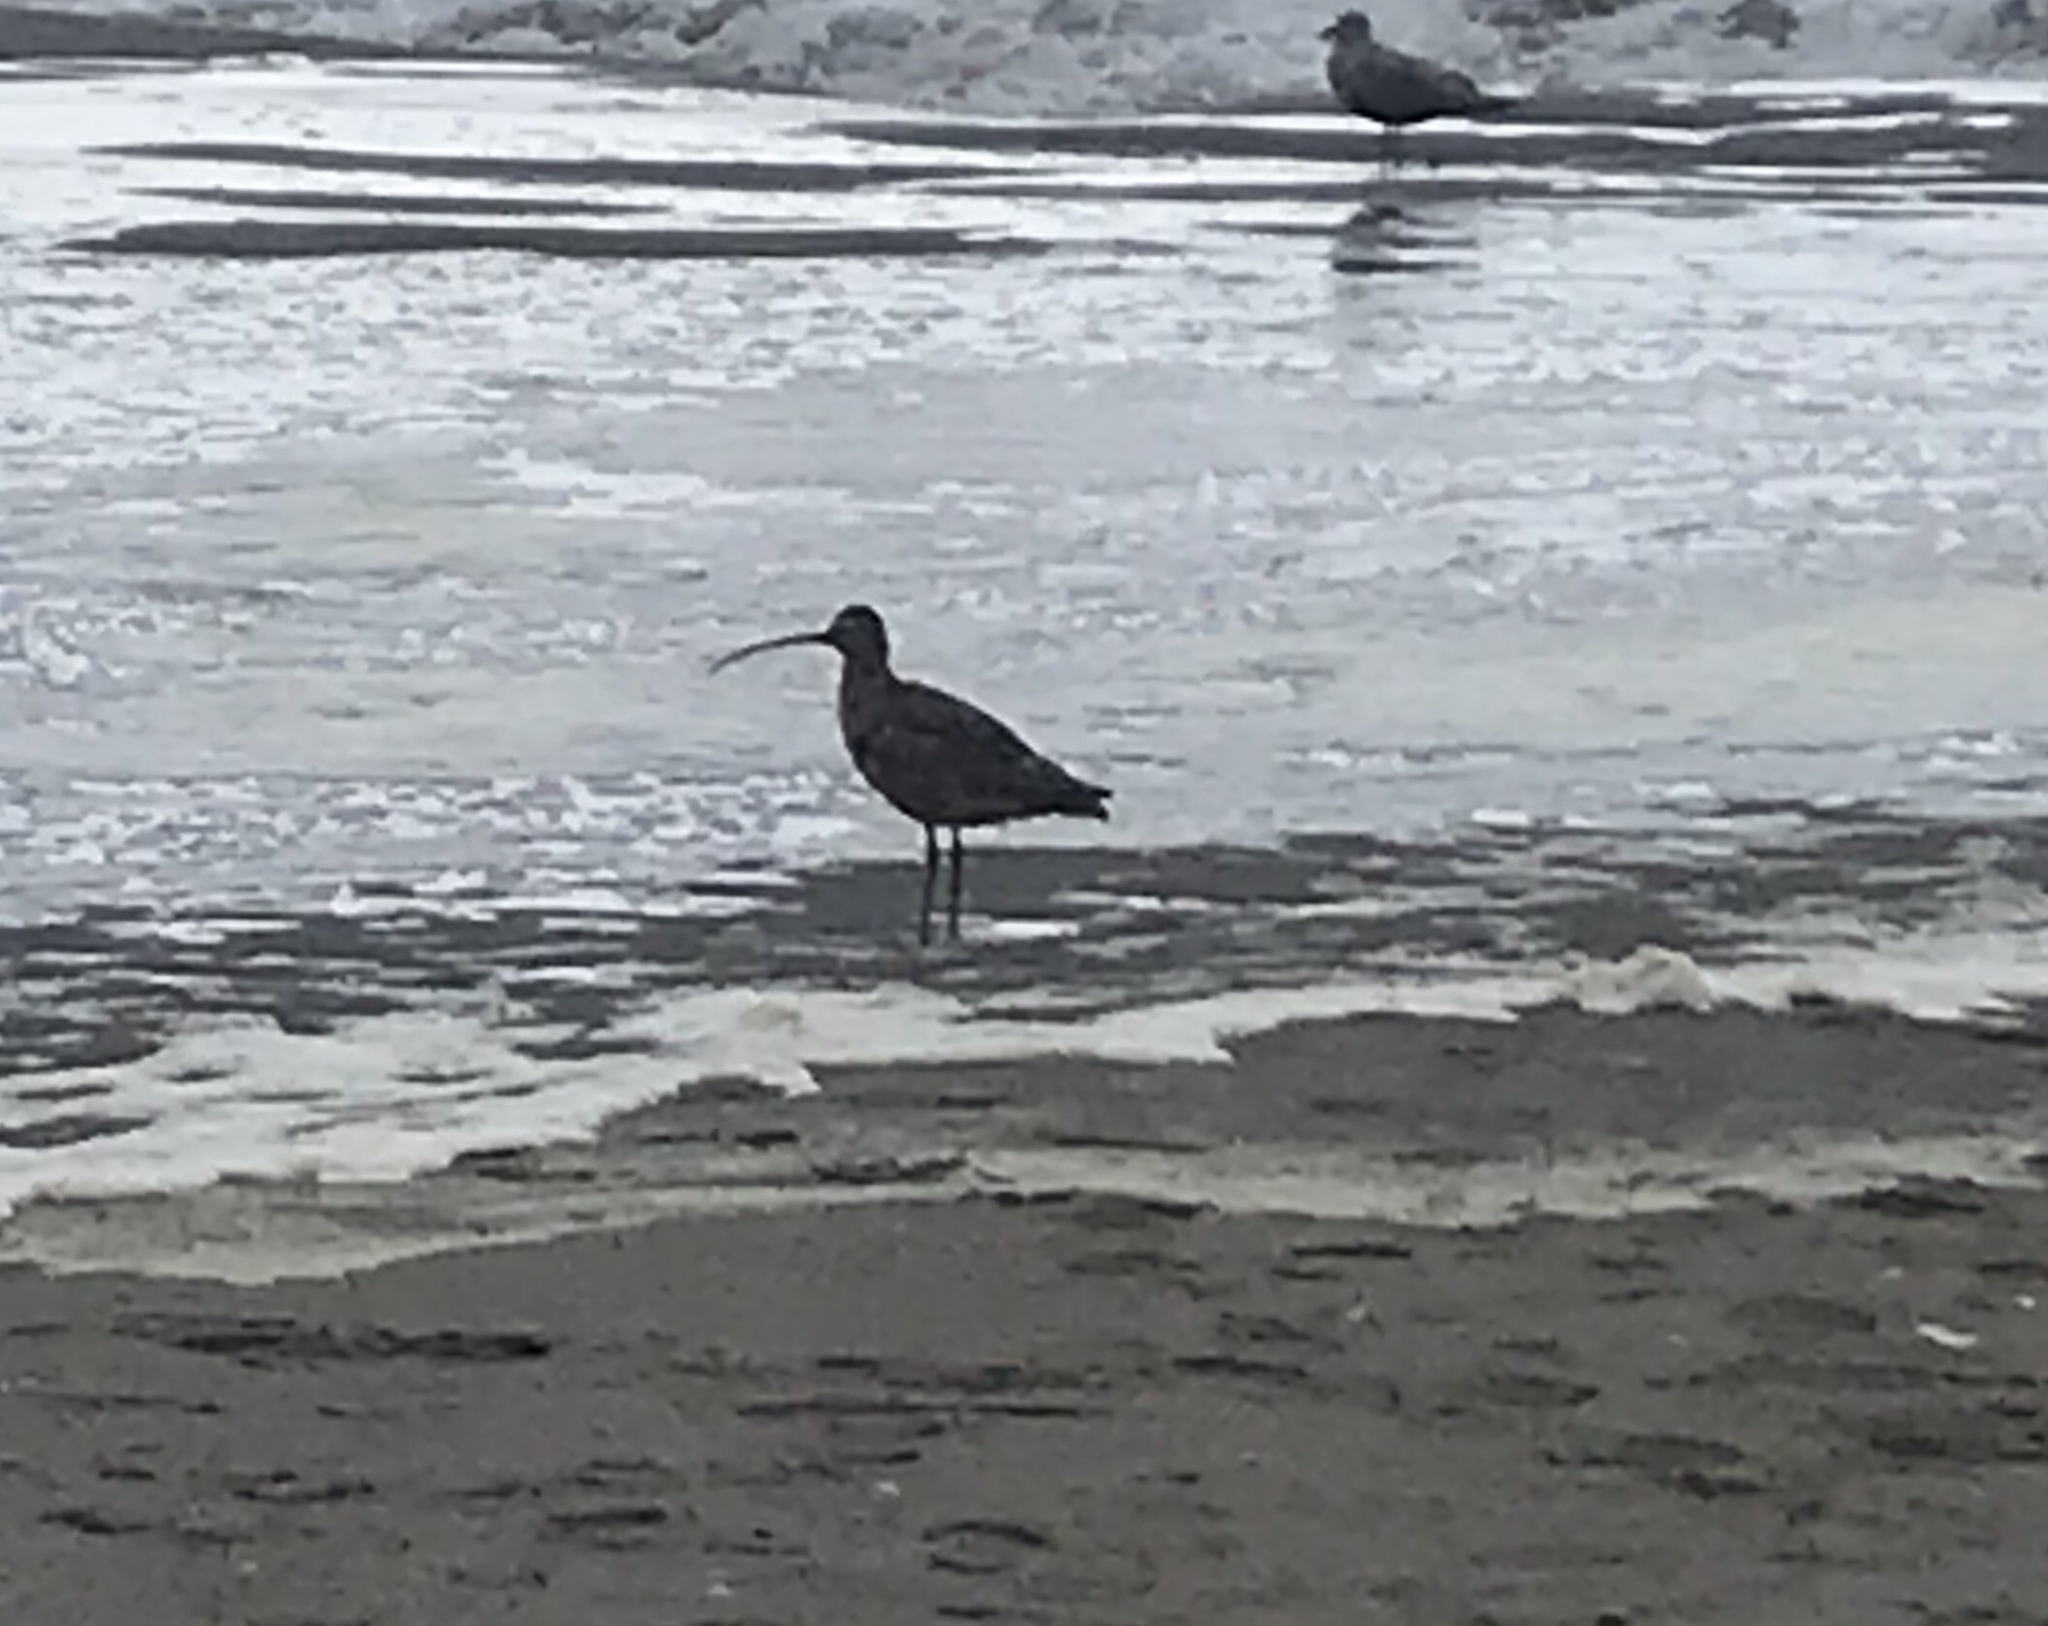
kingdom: Animalia
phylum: Chordata
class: Aves
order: Charadriiformes
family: Scolopacidae
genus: Numenius
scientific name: Numenius americanus
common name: Long-billed curlew
